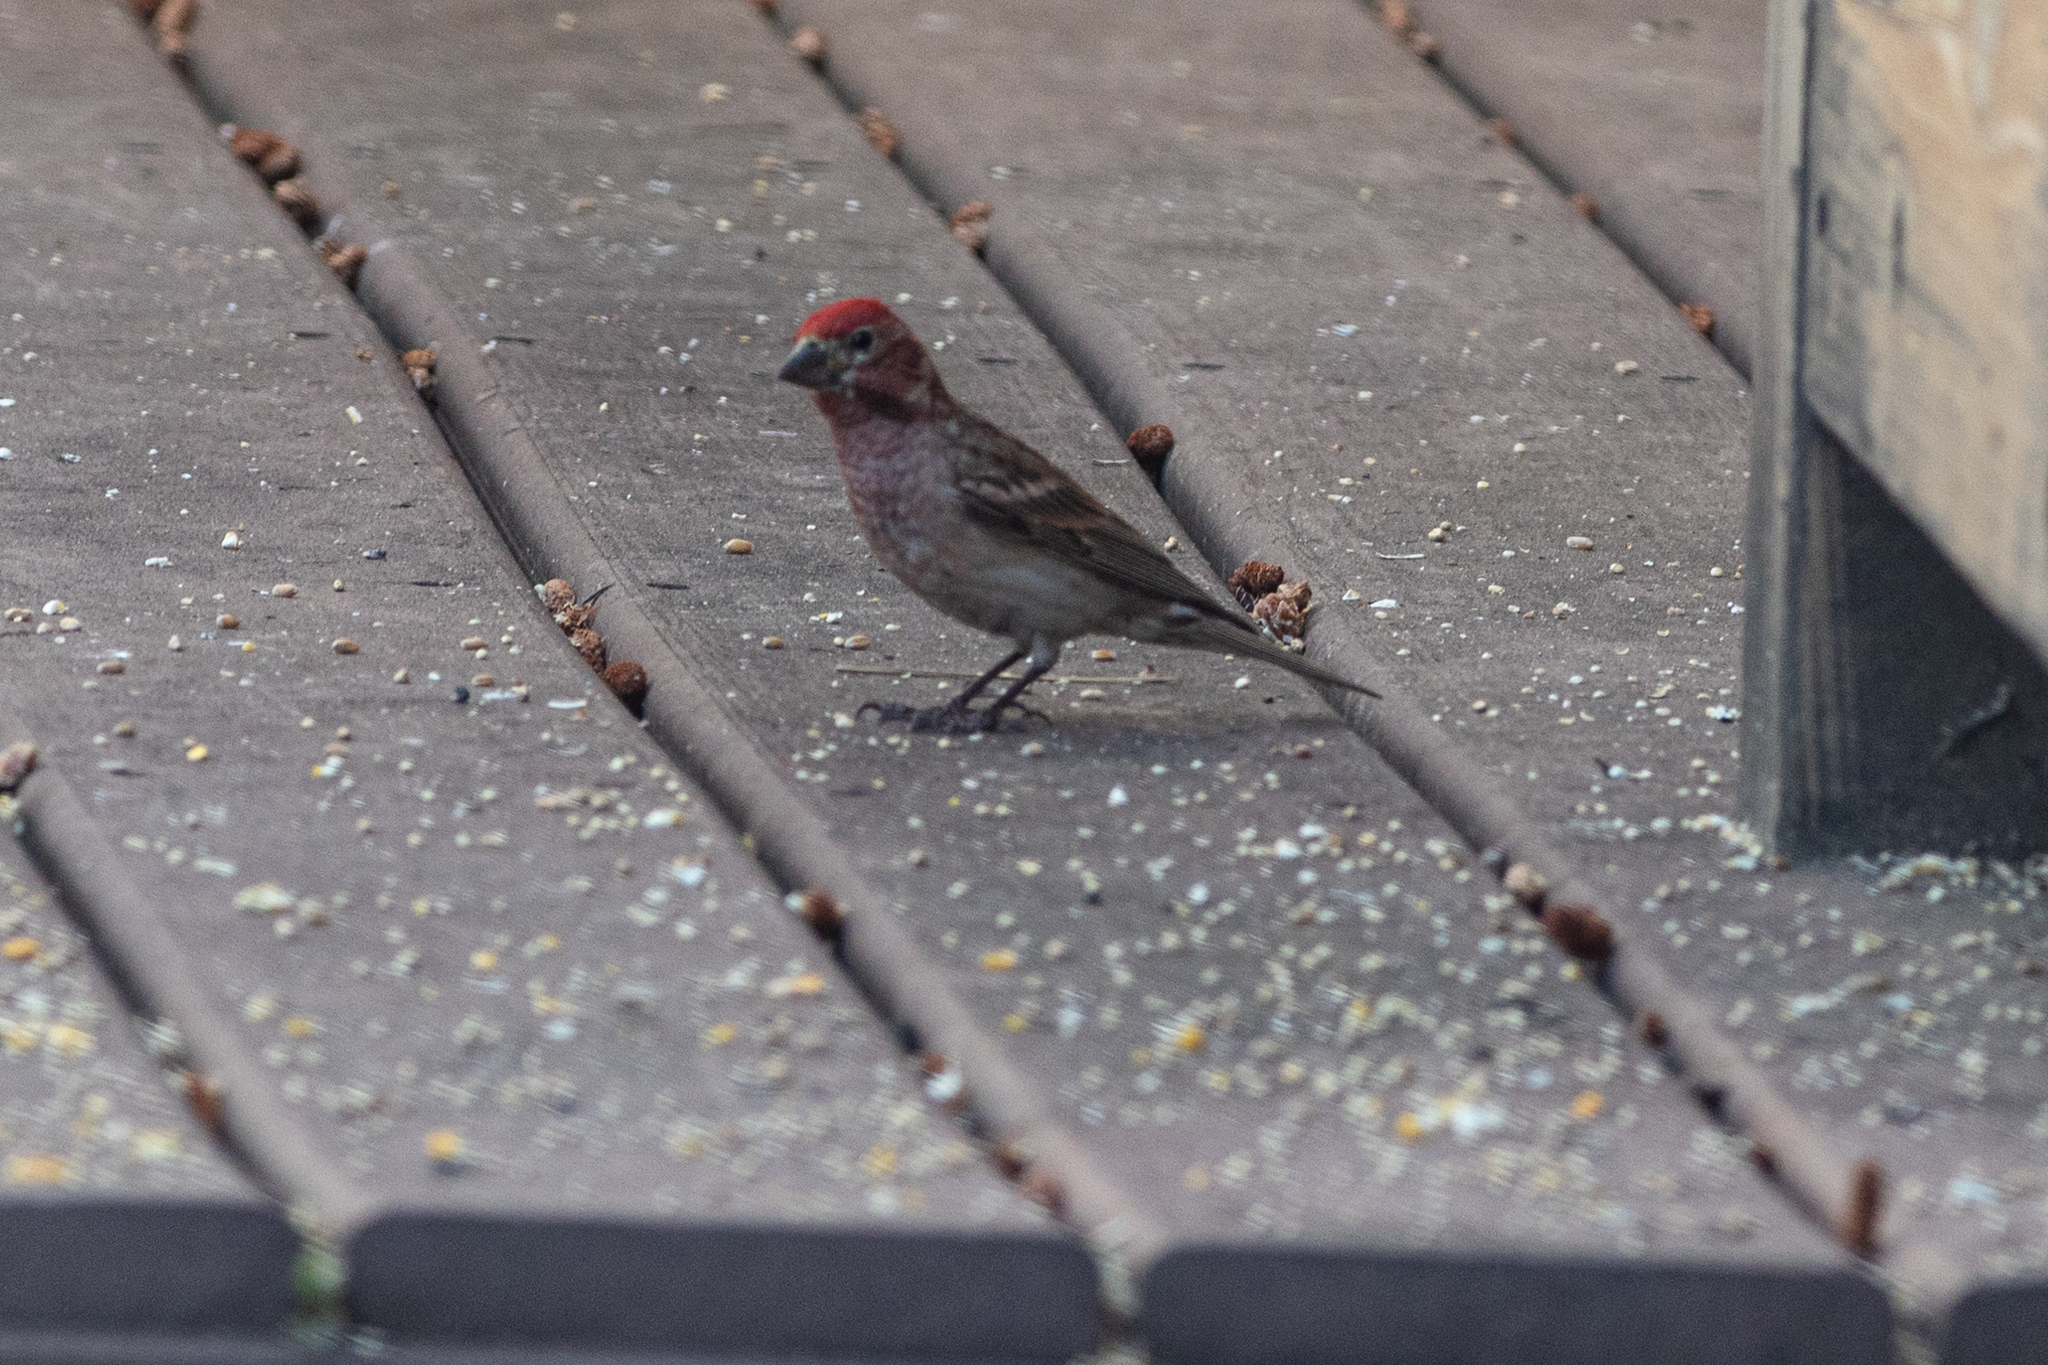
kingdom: Animalia
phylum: Chordata
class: Aves
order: Passeriformes
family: Fringillidae
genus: Haemorhous
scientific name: Haemorhous cassinii
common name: Cassin's finch
